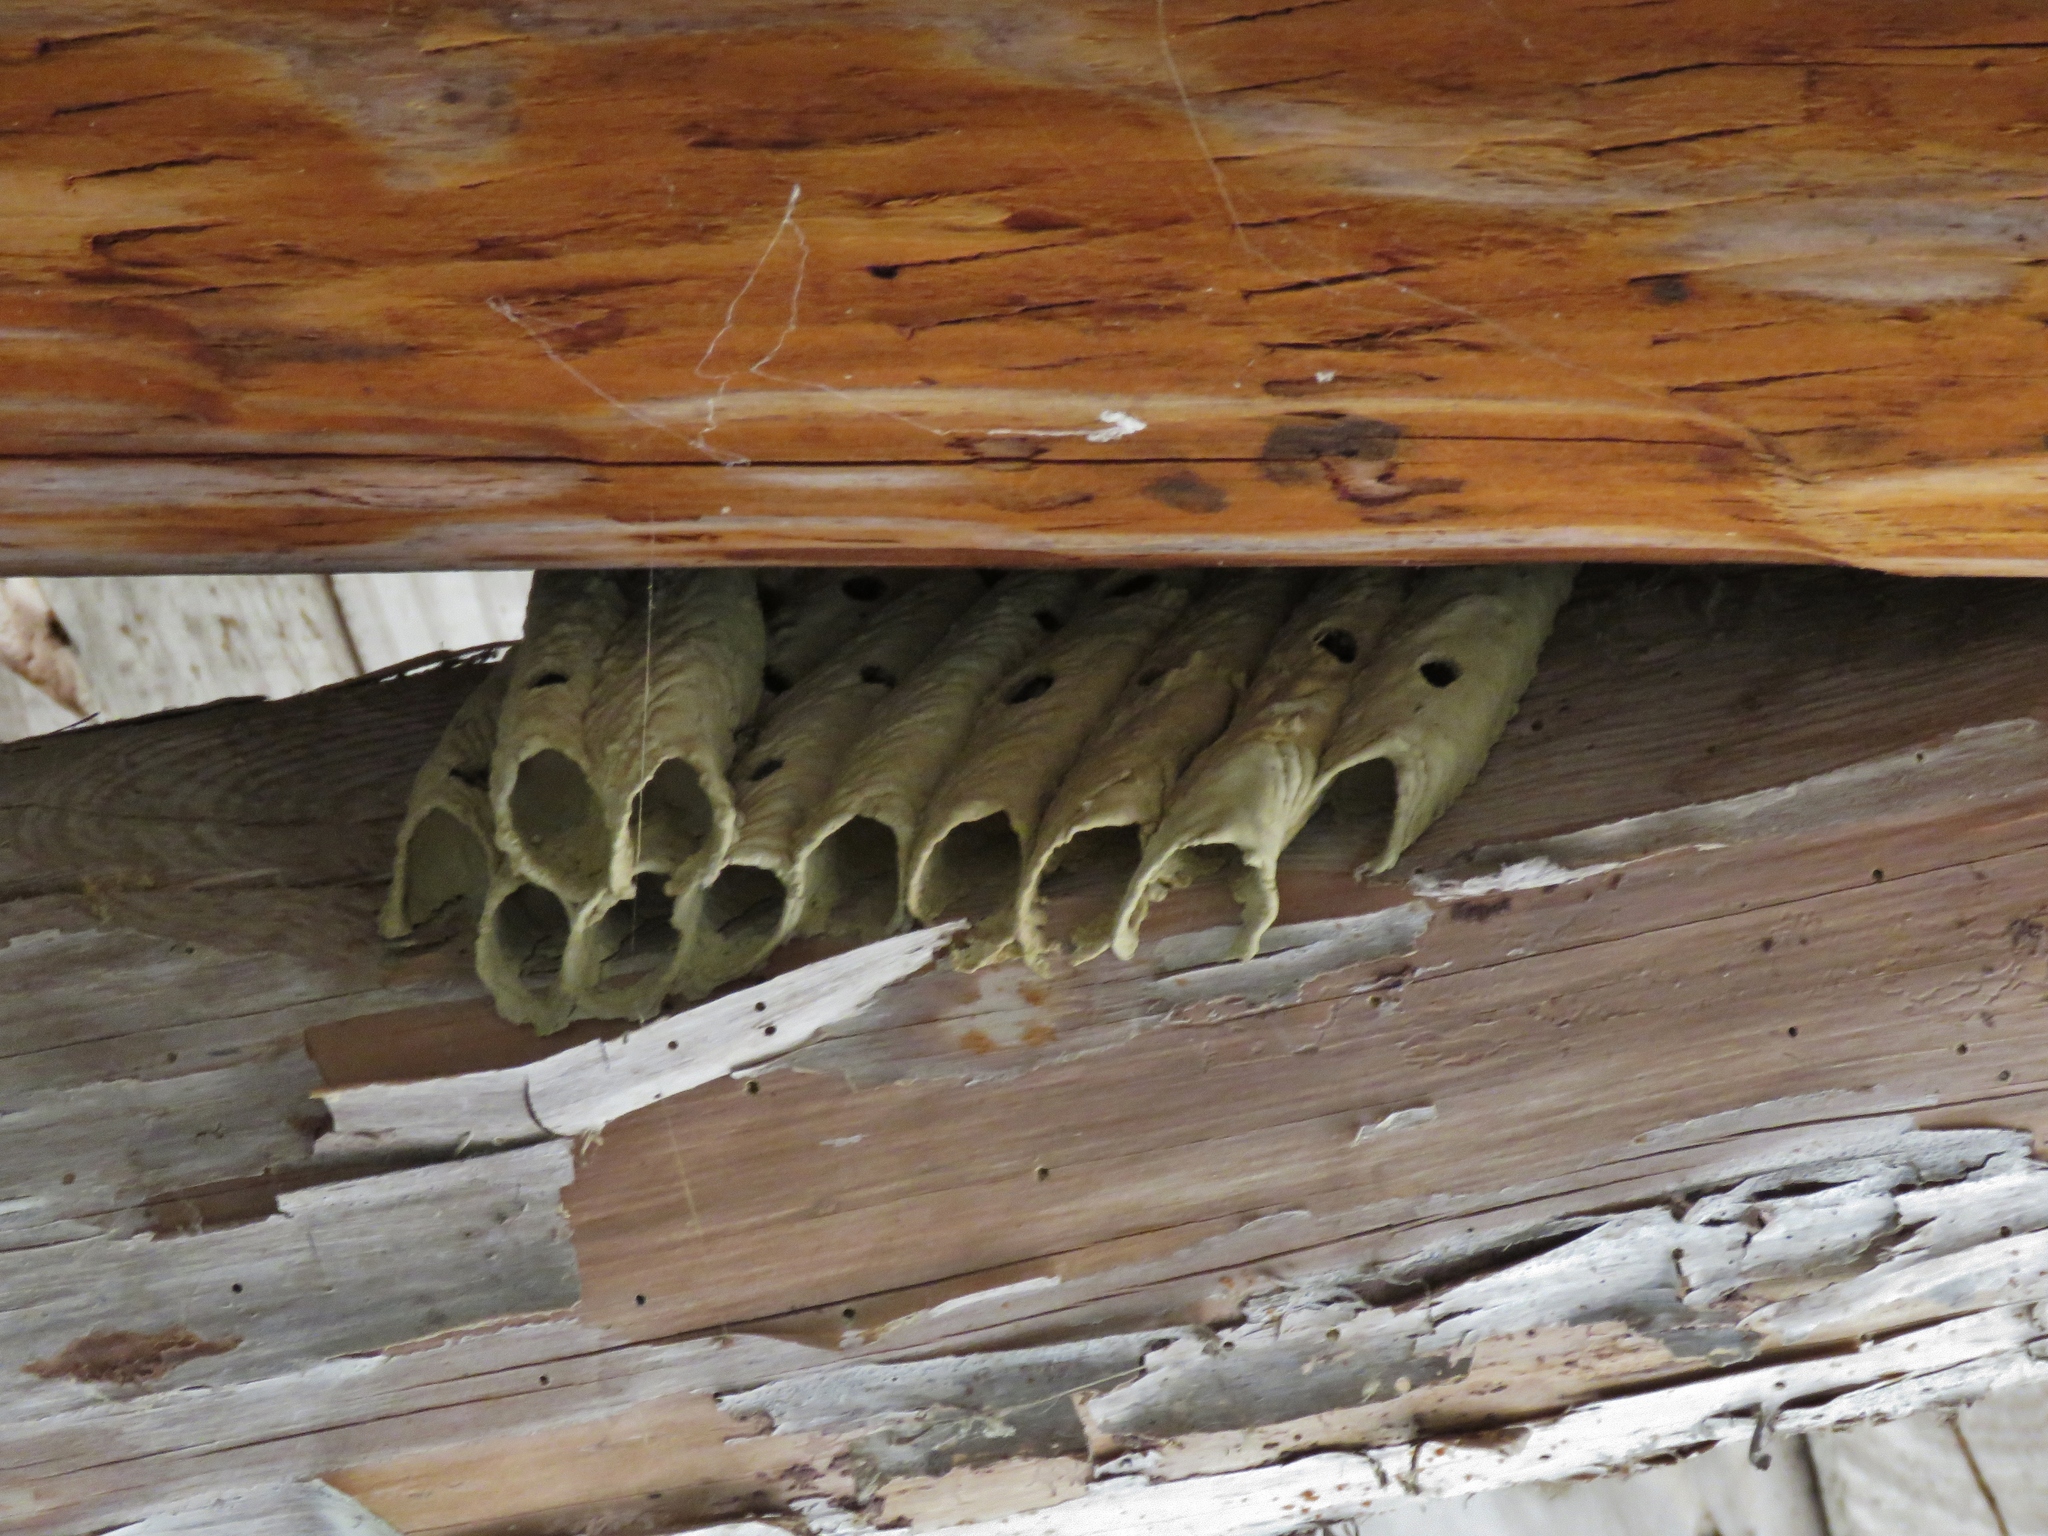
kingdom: Animalia
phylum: Arthropoda
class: Insecta
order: Hymenoptera
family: Crabronidae
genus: Trypoxylon
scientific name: Trypoxylon politum
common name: Organ-pipe mud-dauber wasp
